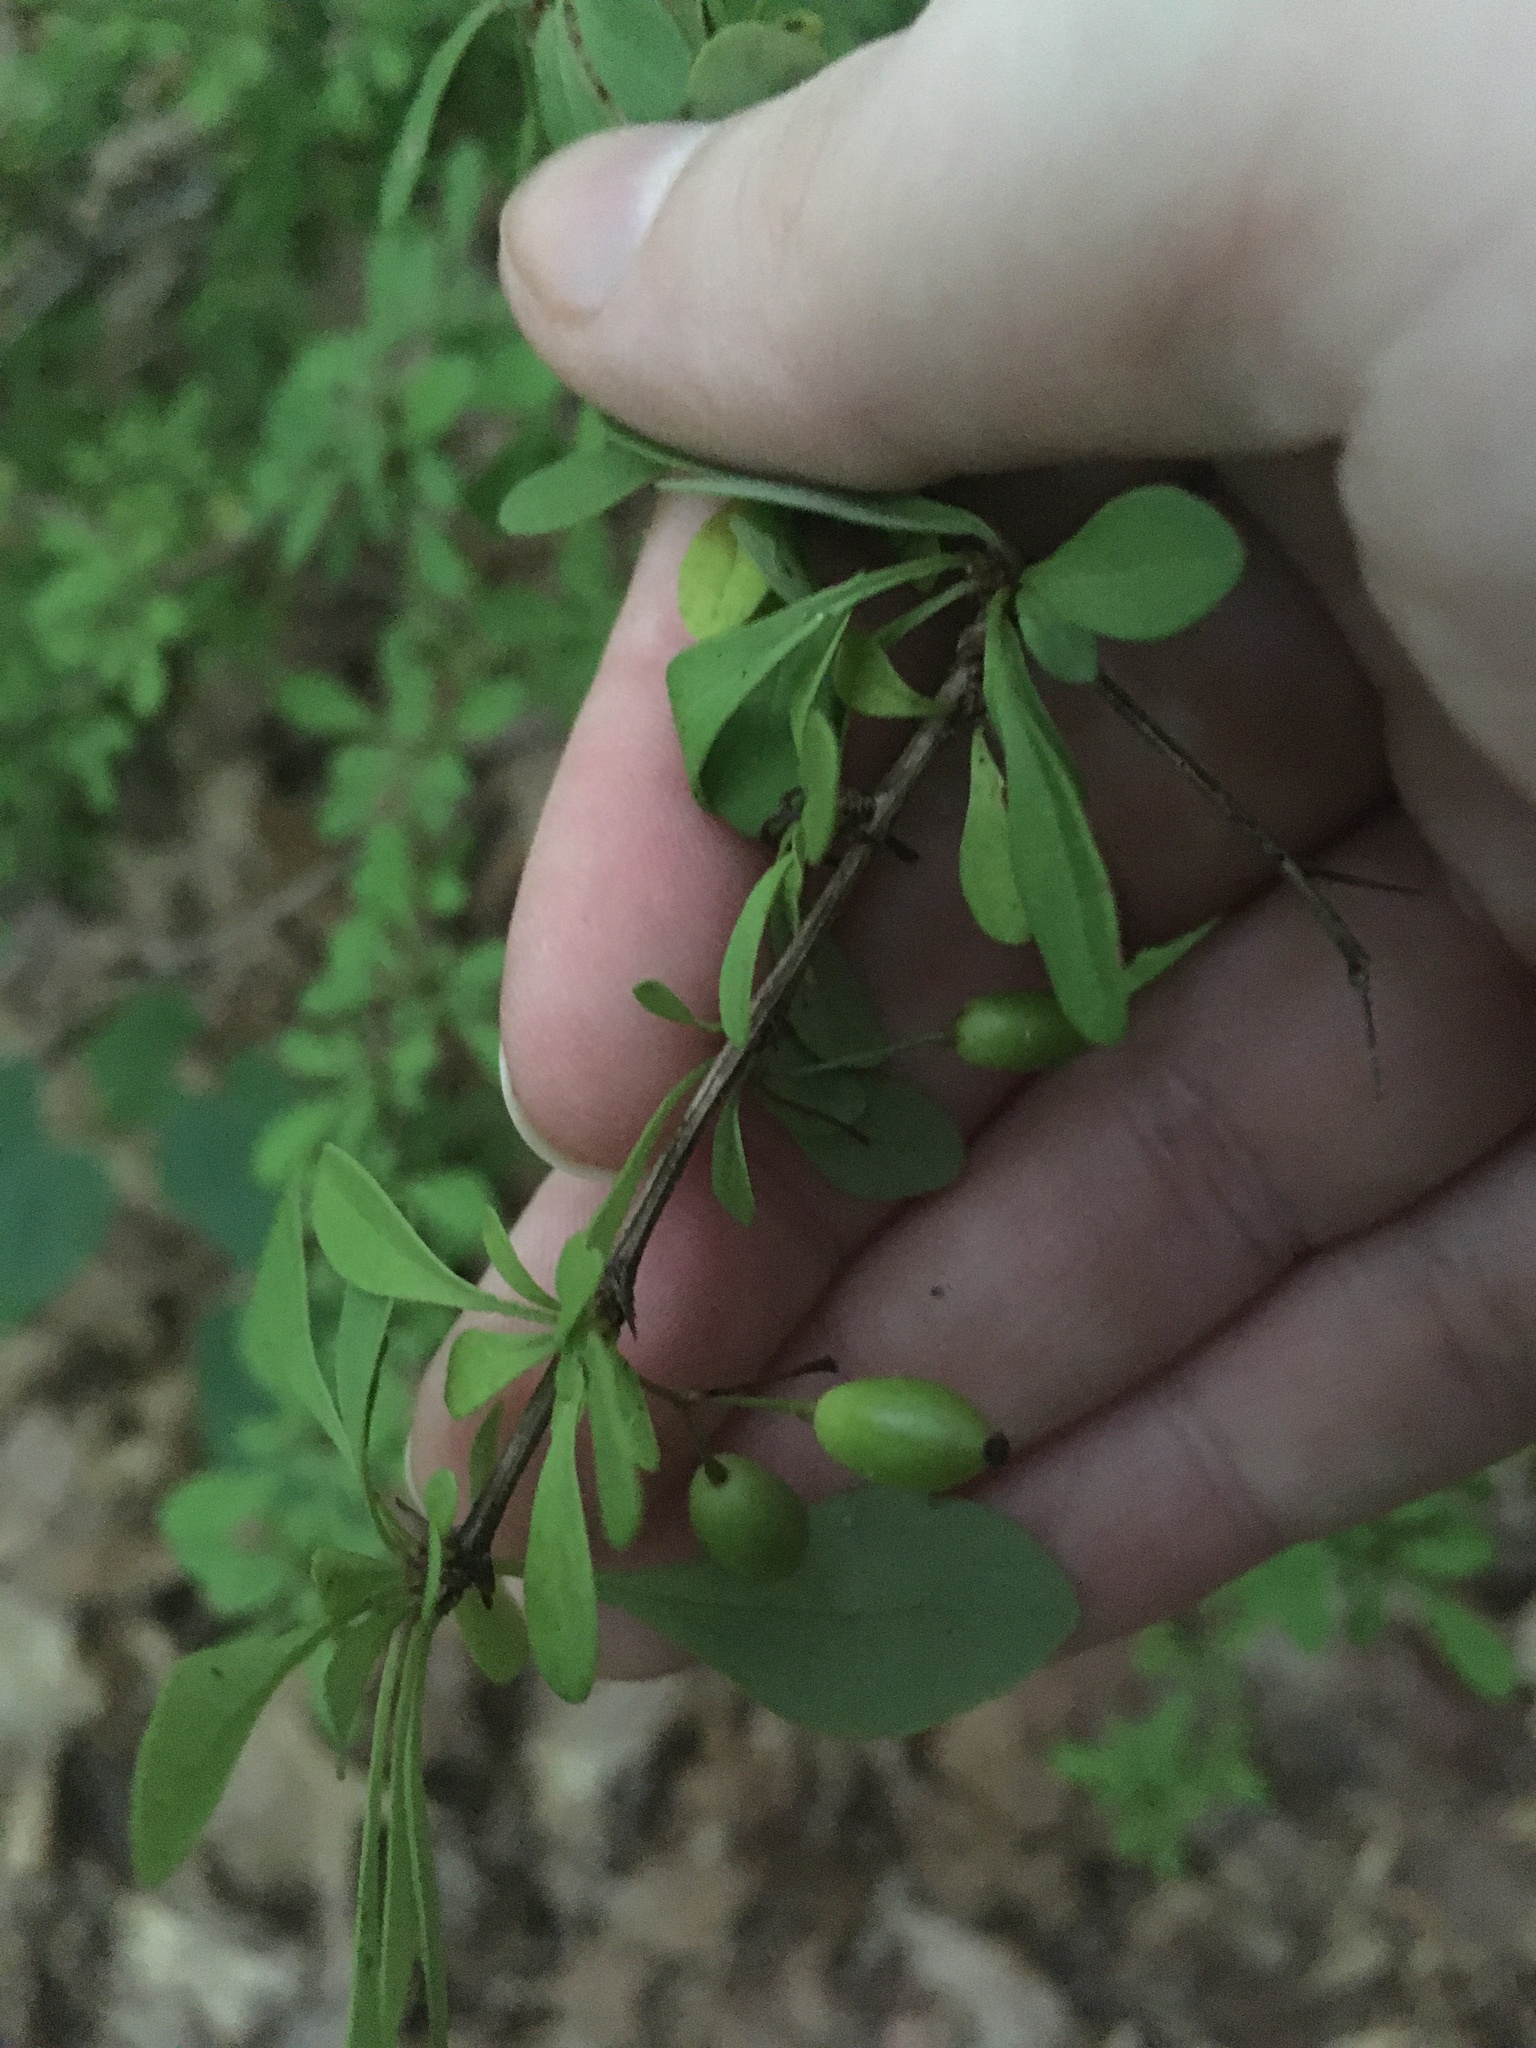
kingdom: Plantae
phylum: Tracheophyta
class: Magnoliopsida
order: Ranunculales
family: Berberidaceae
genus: Berberis
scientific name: Berberis thunbergii
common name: Japanese barberry
